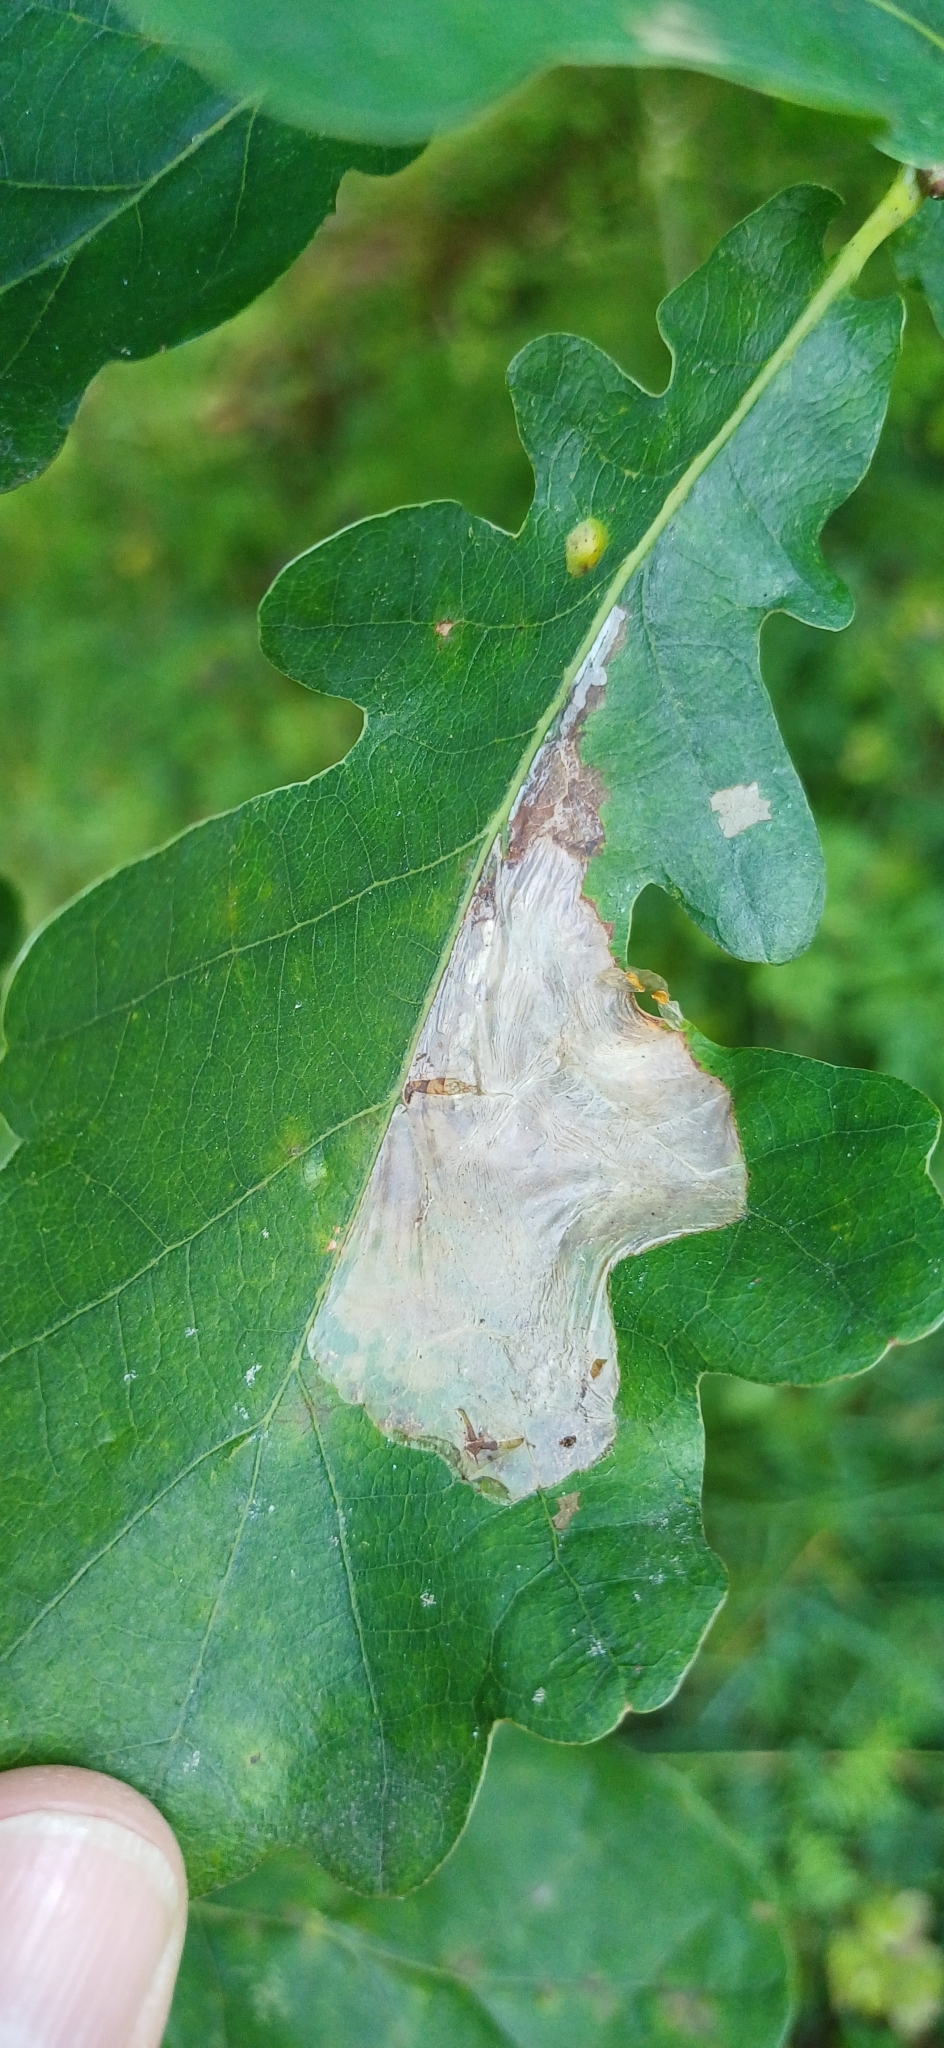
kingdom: Animalia
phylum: Arthropoda
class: Insecta
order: Lepidoptera
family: Gracillariidae
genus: Acrocercops
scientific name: Acrocercops brongniardella
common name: Brown oak slender
